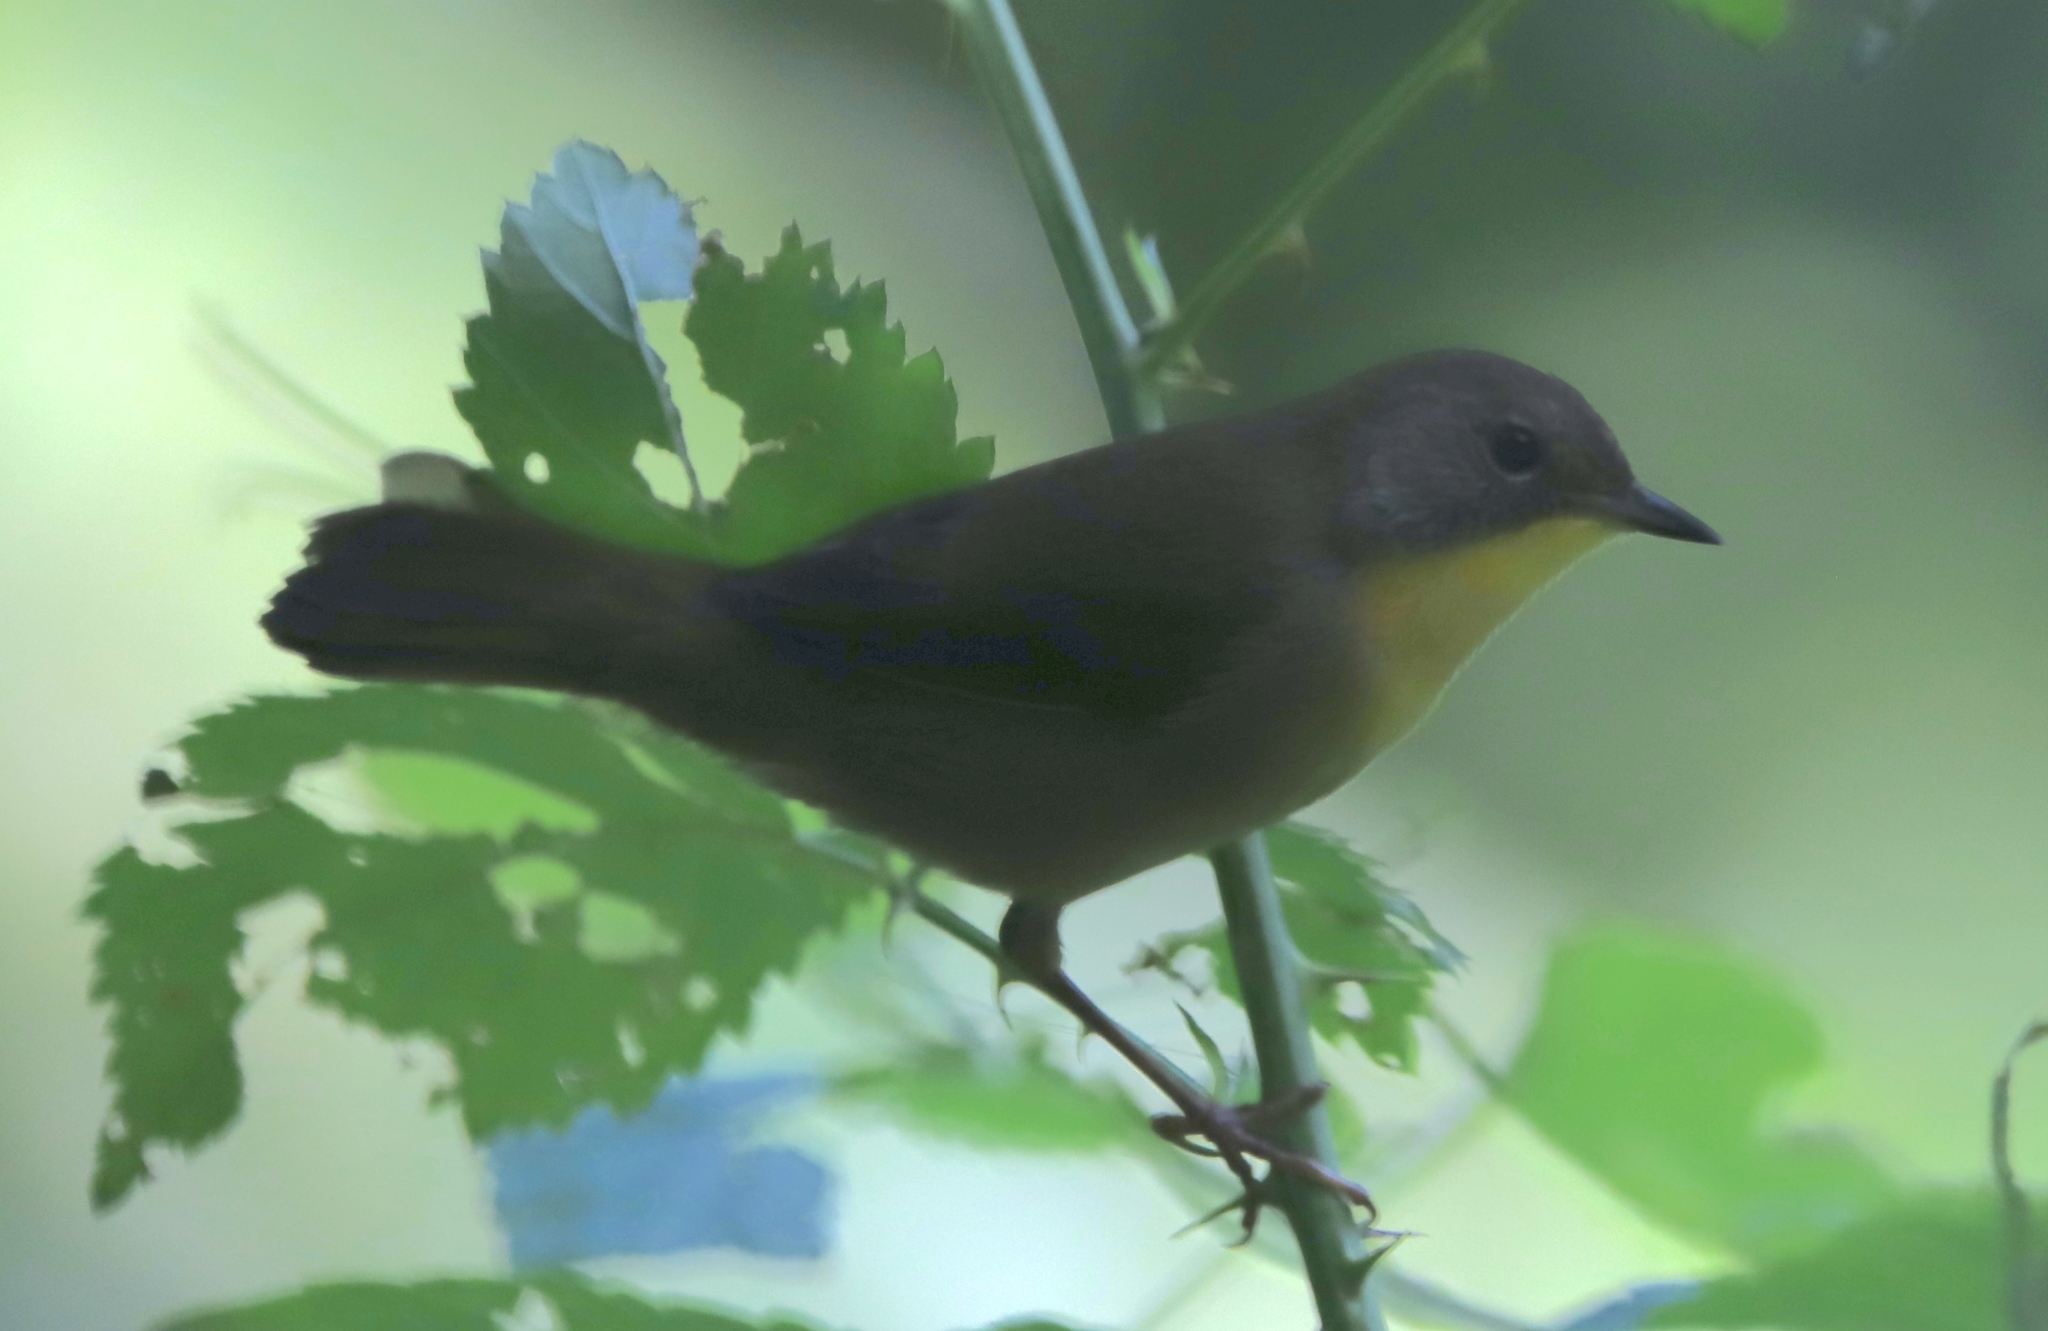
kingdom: Animalia
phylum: Chordata
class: Aves
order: Passeriformes
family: Parulidae
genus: Geothlypis
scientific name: Geothlypis trichas
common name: Common yellowthroat
